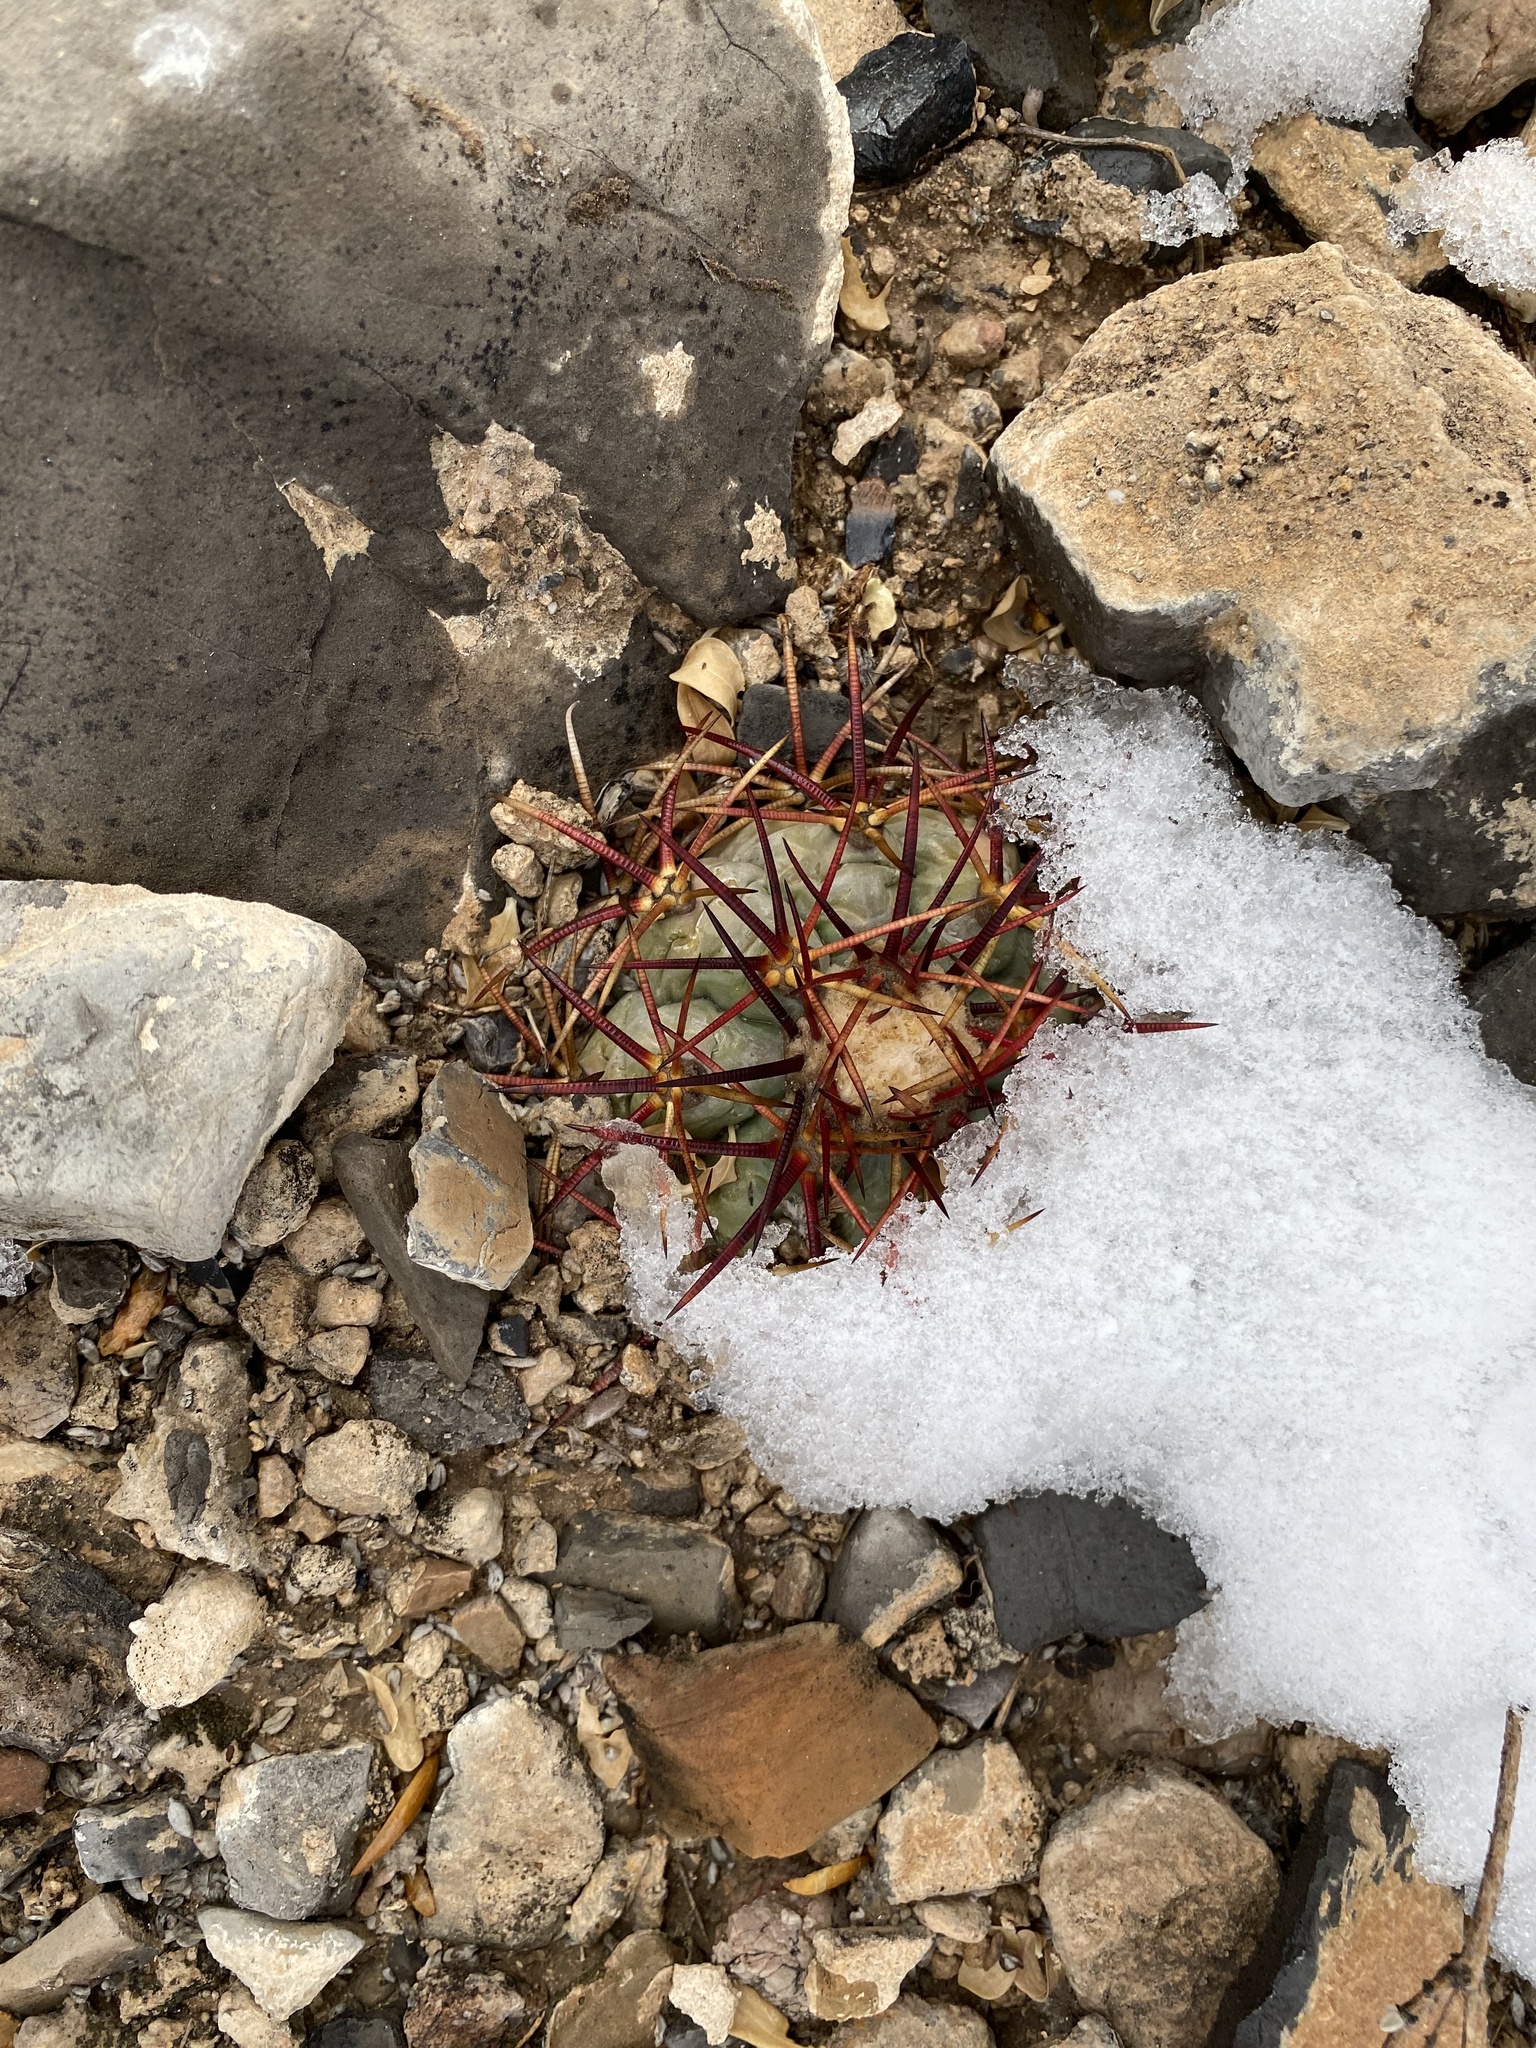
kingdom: Plantae
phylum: Tracheophyta
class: Magnoliopsida
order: Caryophyllales
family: Cactaceae
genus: Echinocactus
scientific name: Echinocactus horizonthalonius
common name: Devilshead
